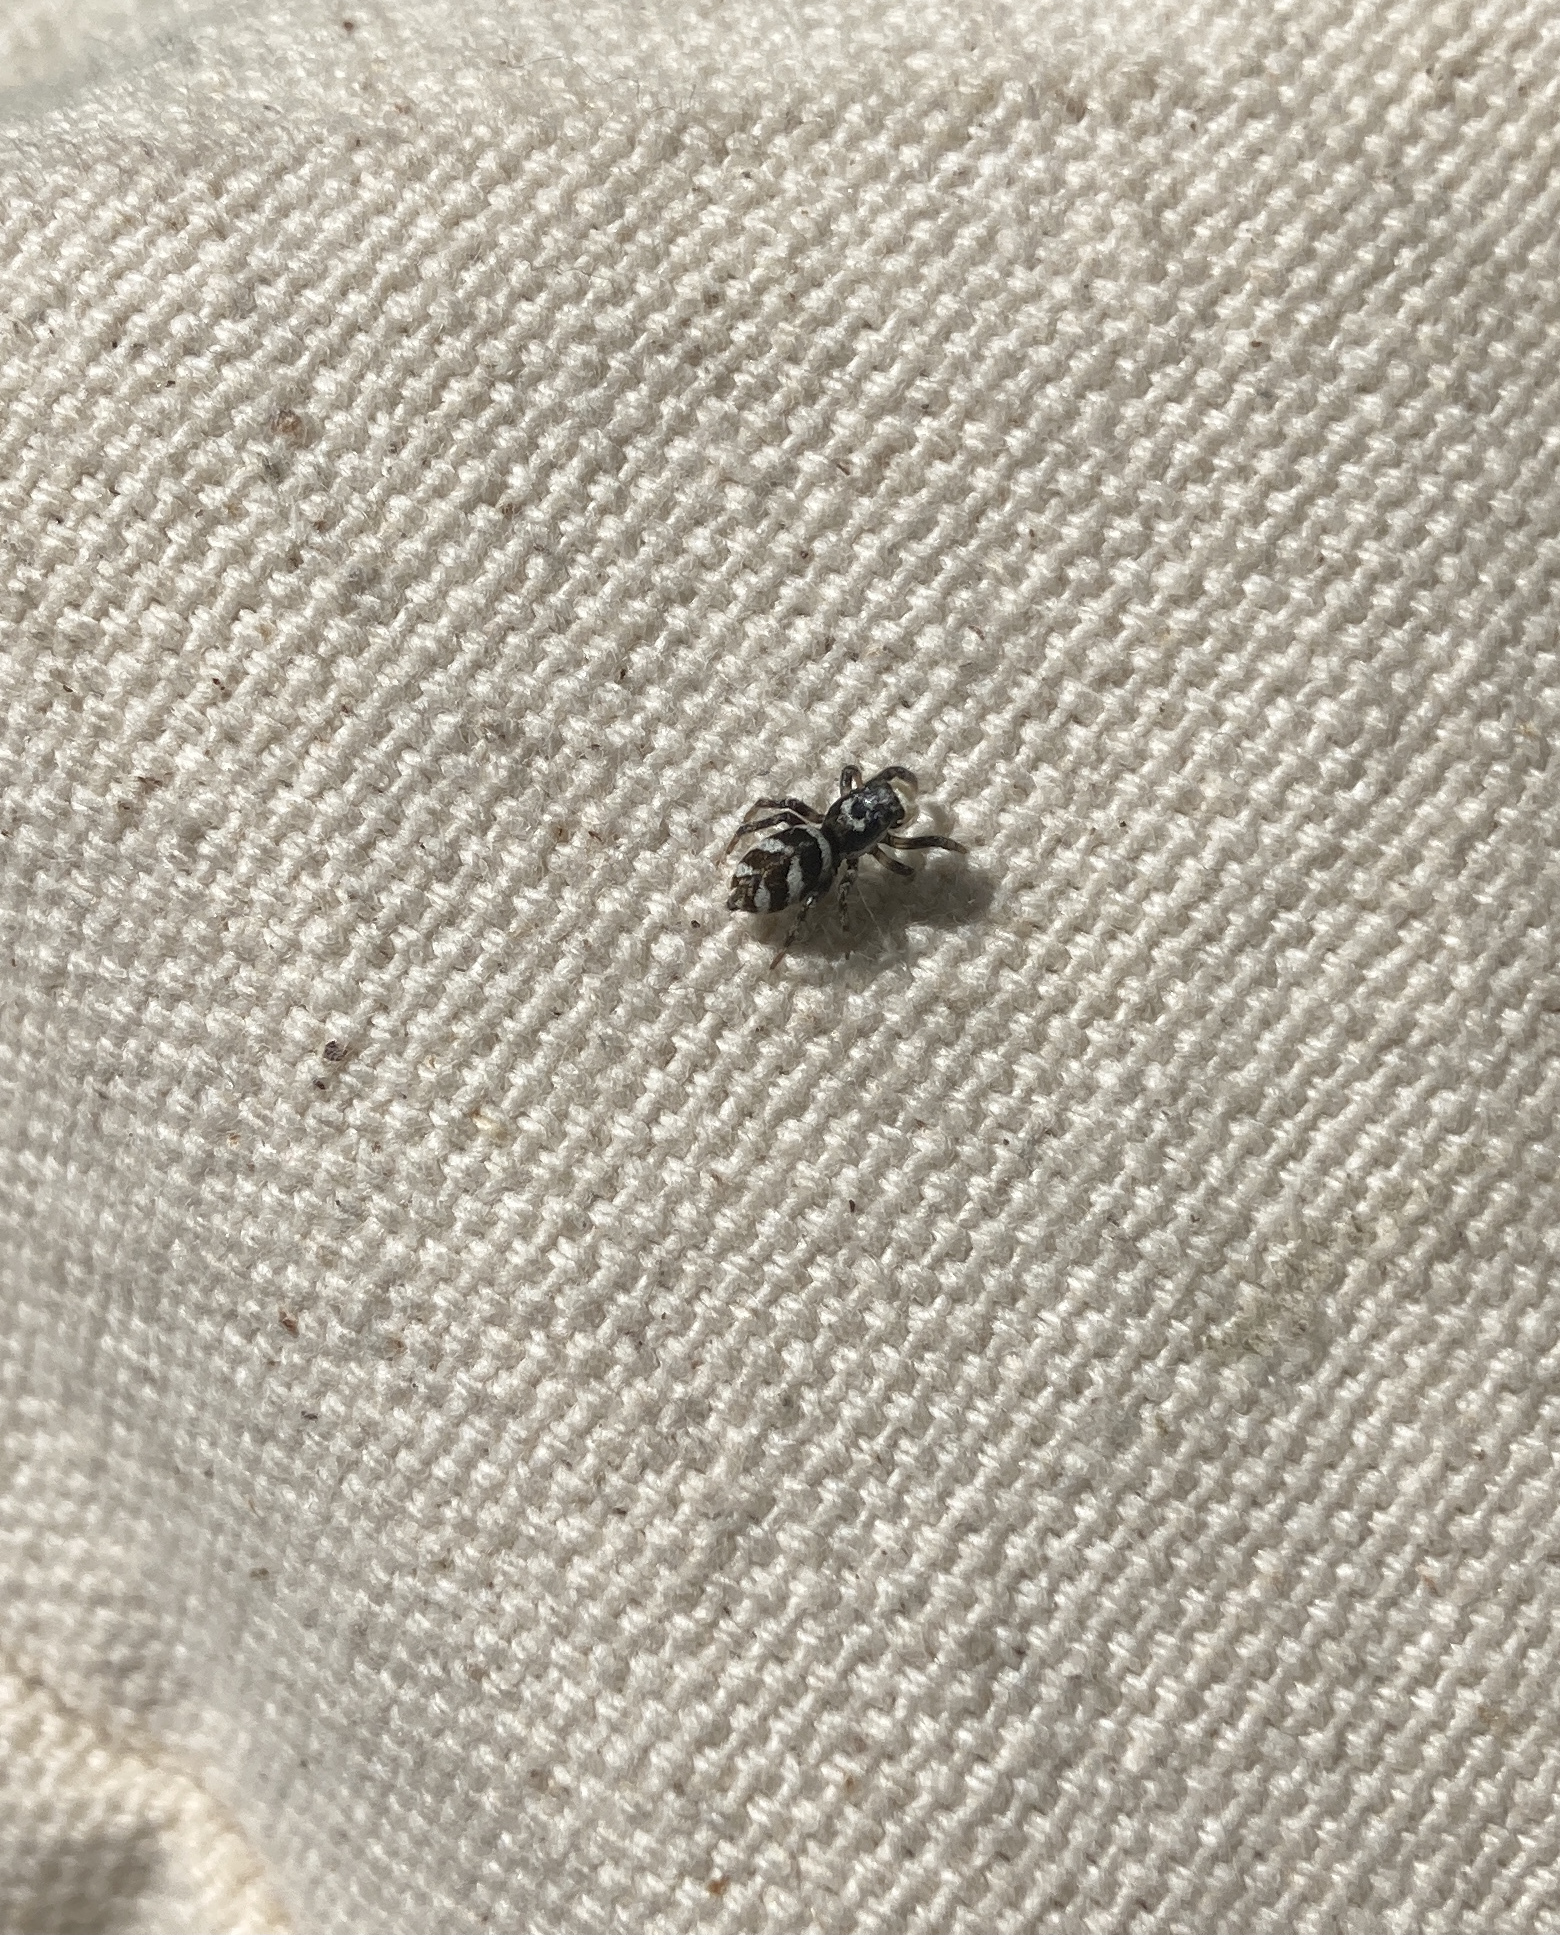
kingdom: Animalia
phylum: Arthropoda
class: Arachnida
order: Araneae
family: Salticidae
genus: Salticus
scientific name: Salticus scenicus
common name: Zebra jumper
